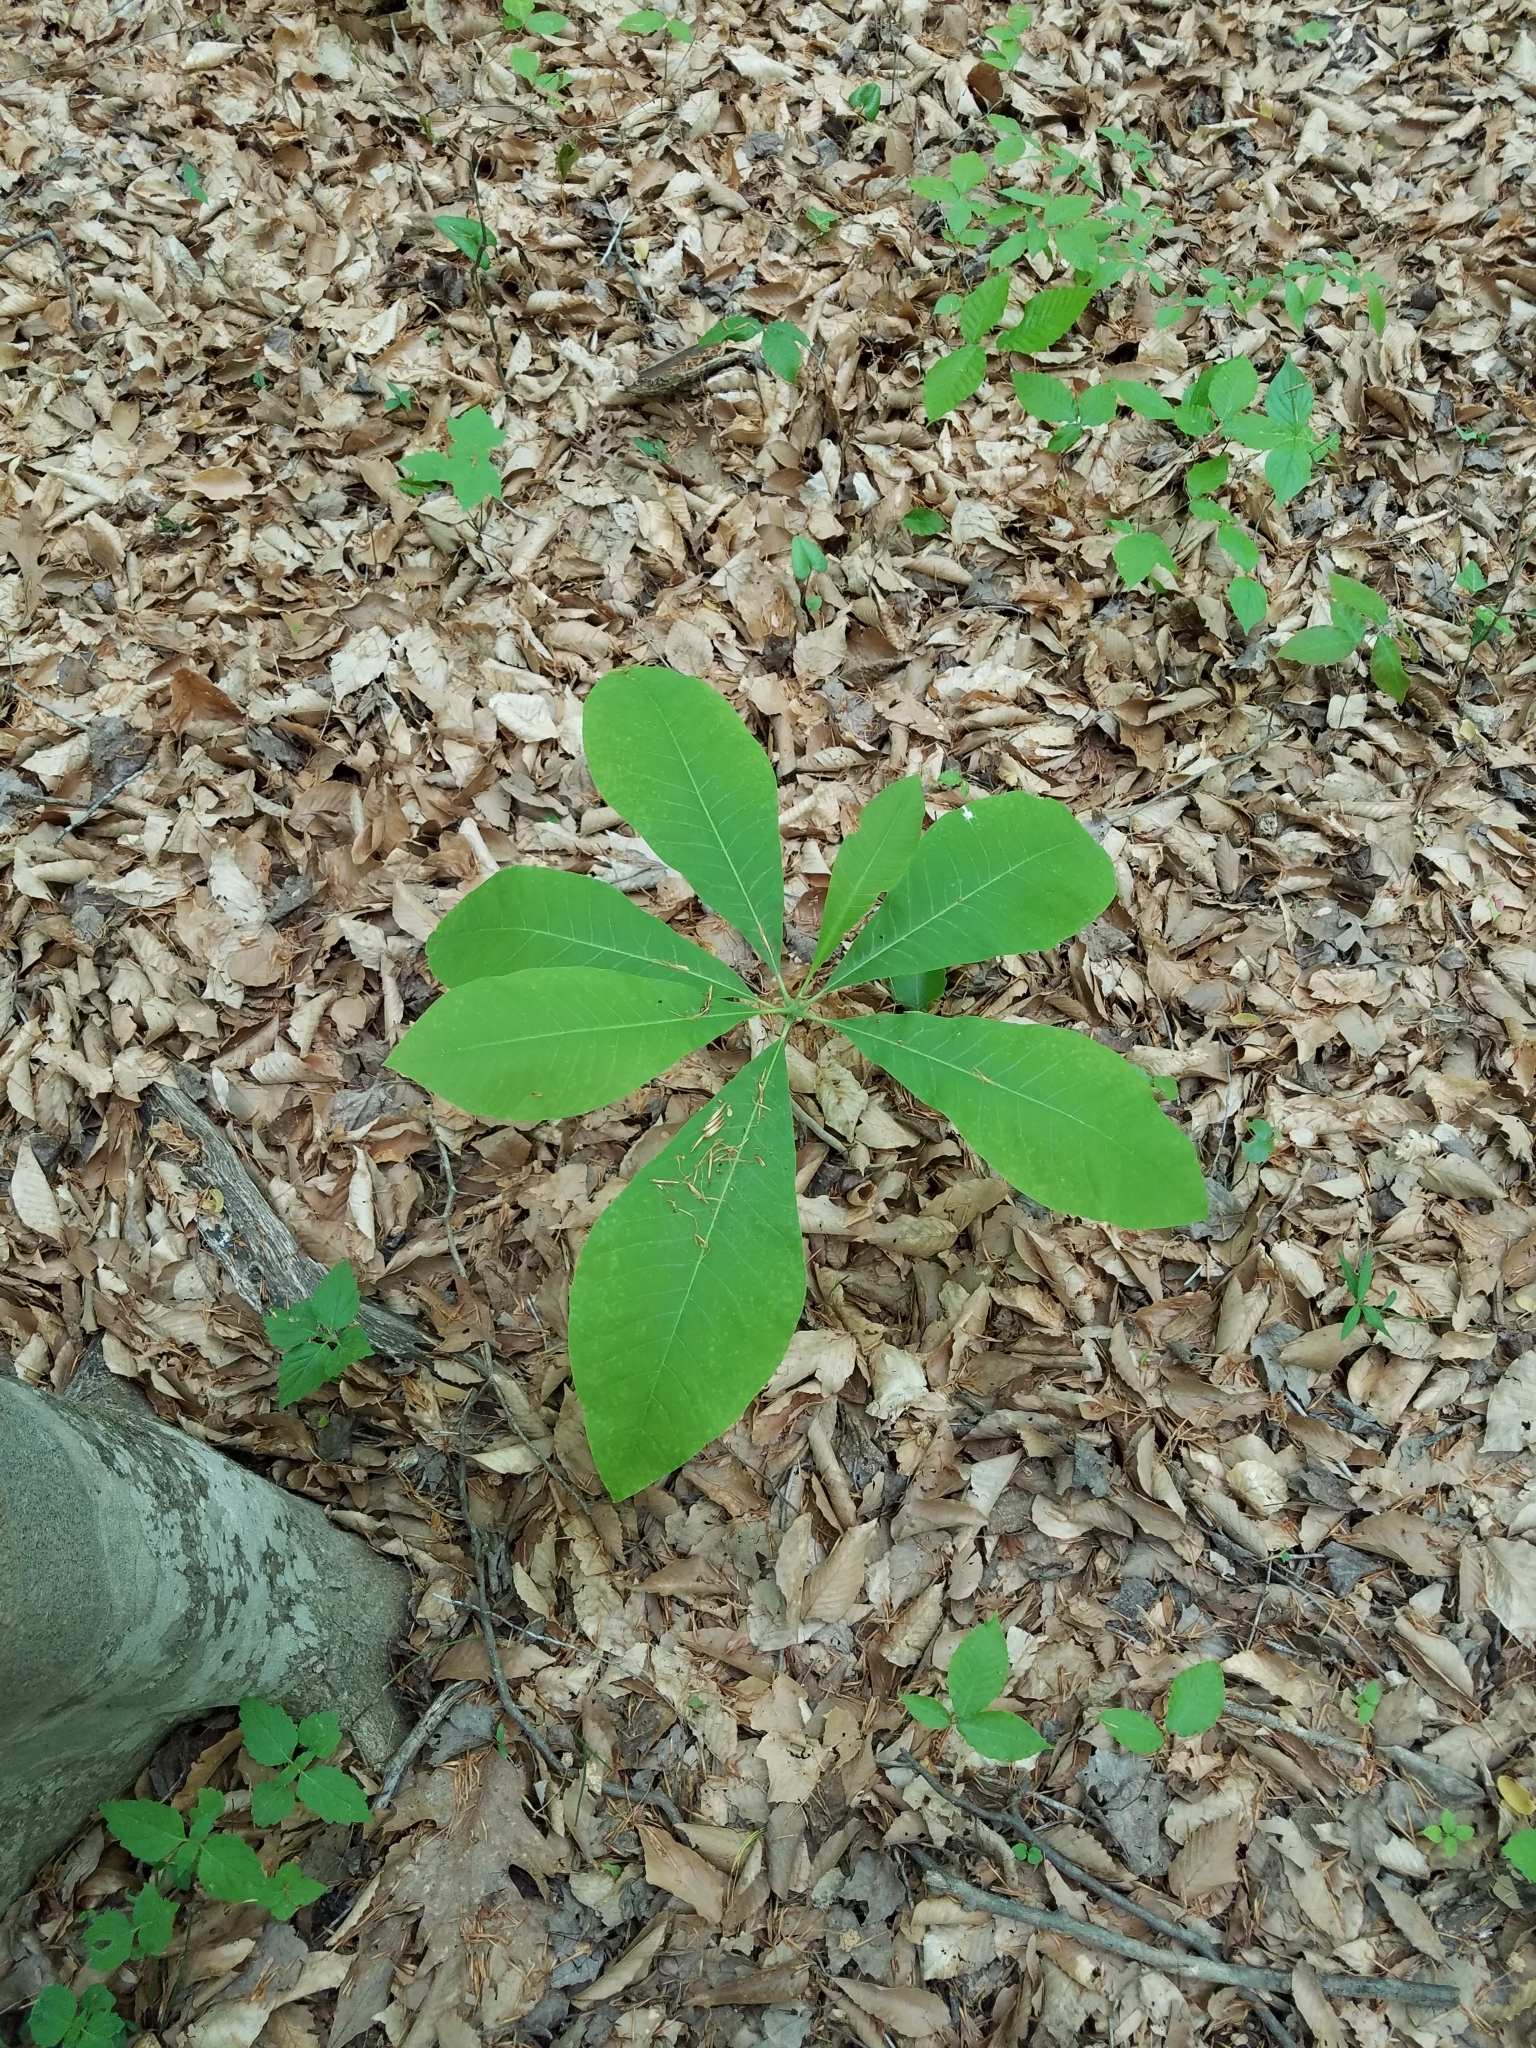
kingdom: Plantae
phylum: Tracheophyta
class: Magnoliopsida
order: Magnoliales
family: Magnoliaceae
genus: Magnolia
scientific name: Magnolia tripetala
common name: Umbrella magnolia
